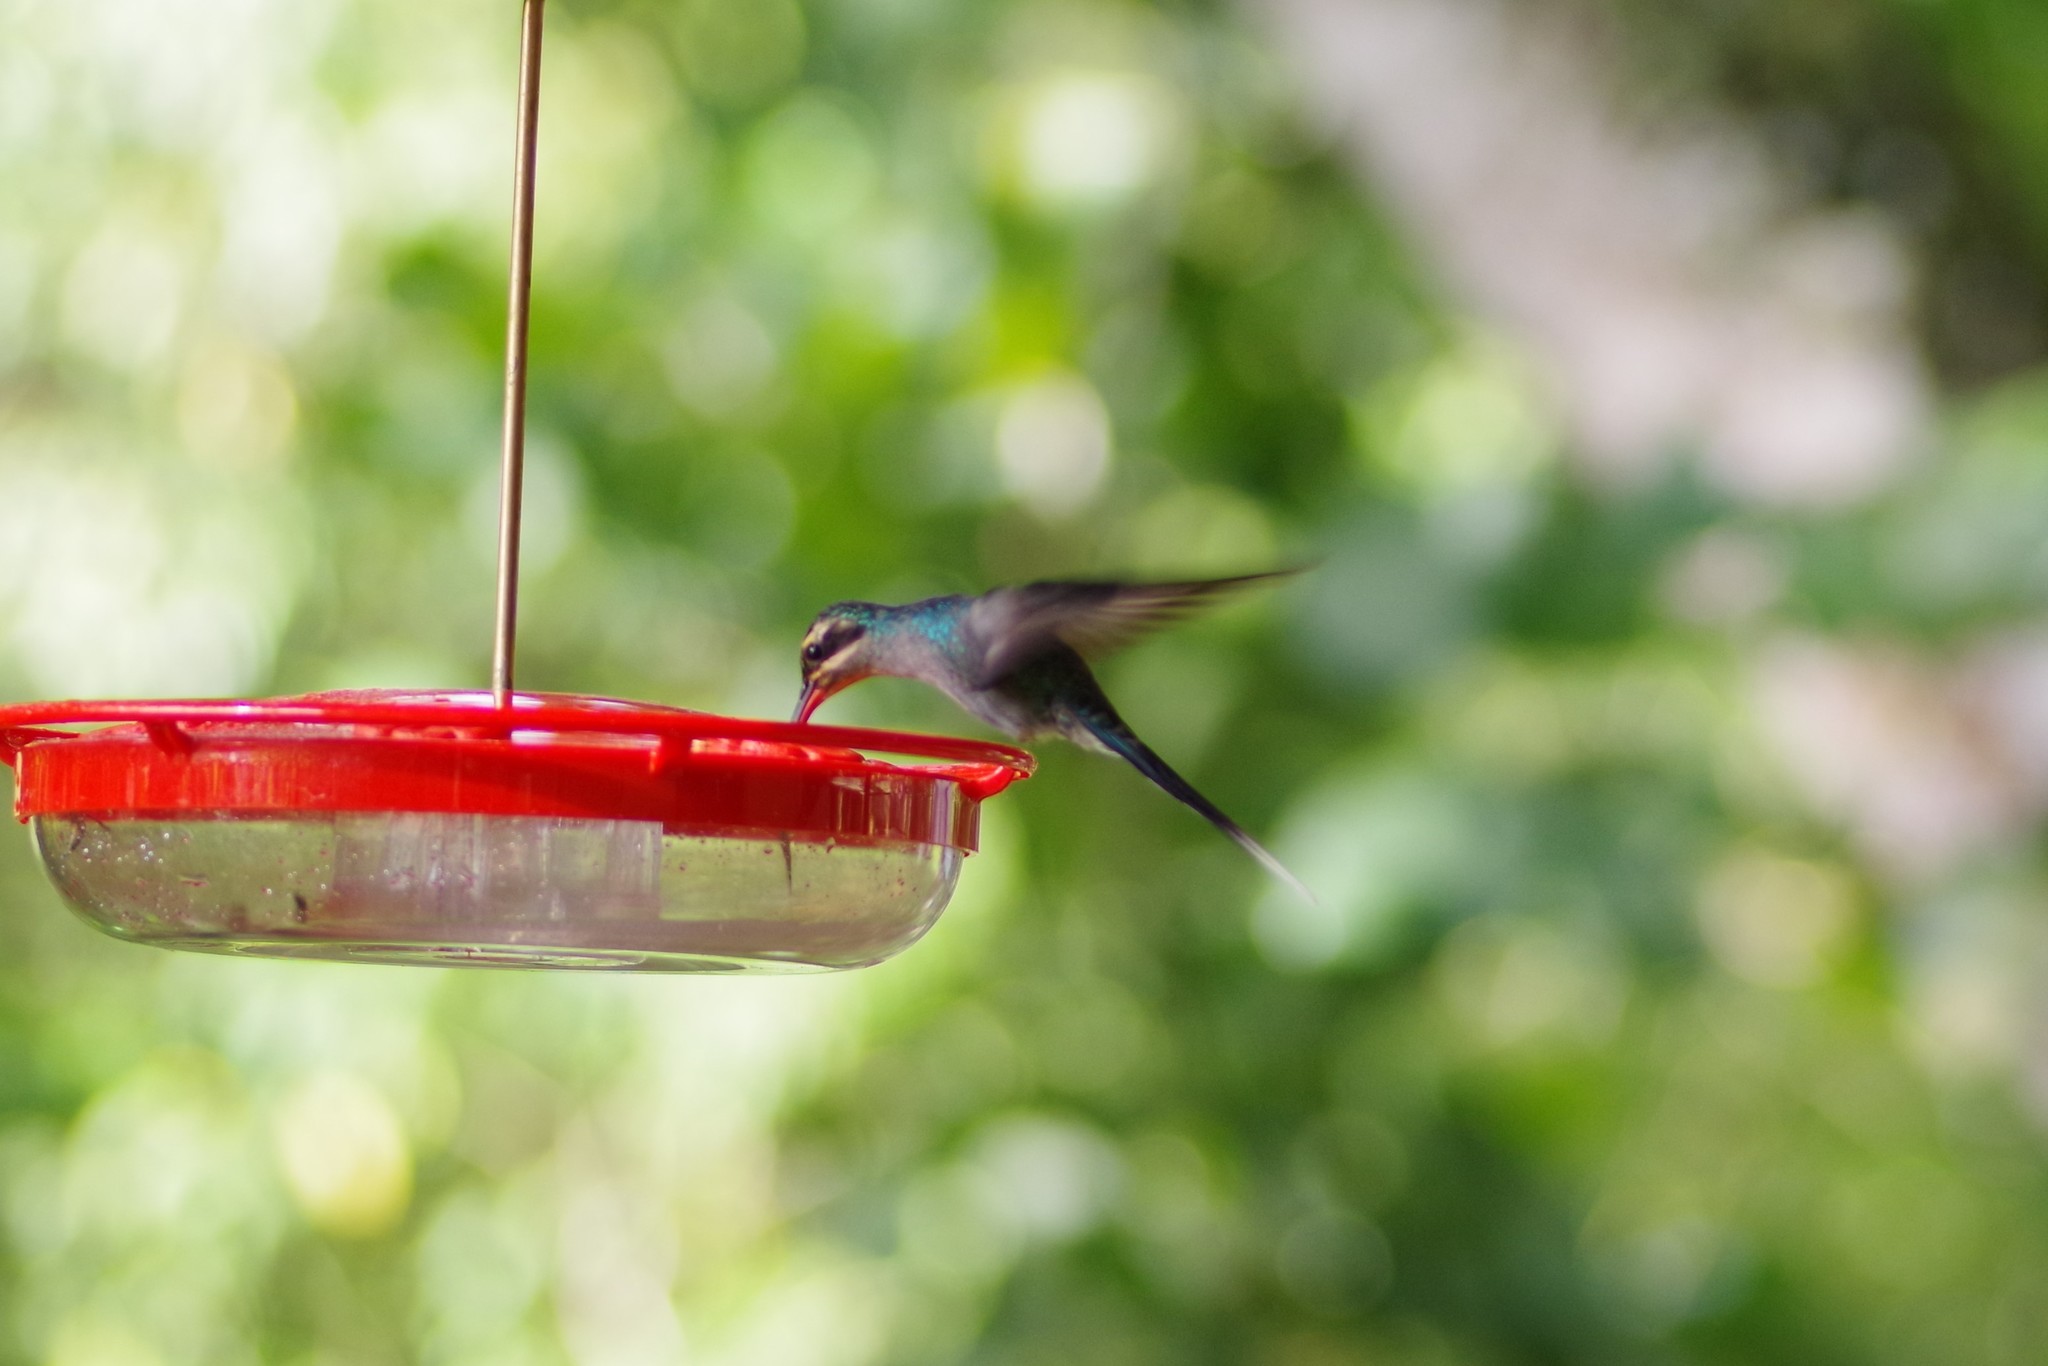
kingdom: Animalia
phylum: Chordata
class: Aves
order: Apodiformes
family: Trochilidae
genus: Phaethornis
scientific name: Phaethornis guy
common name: Green hermit
